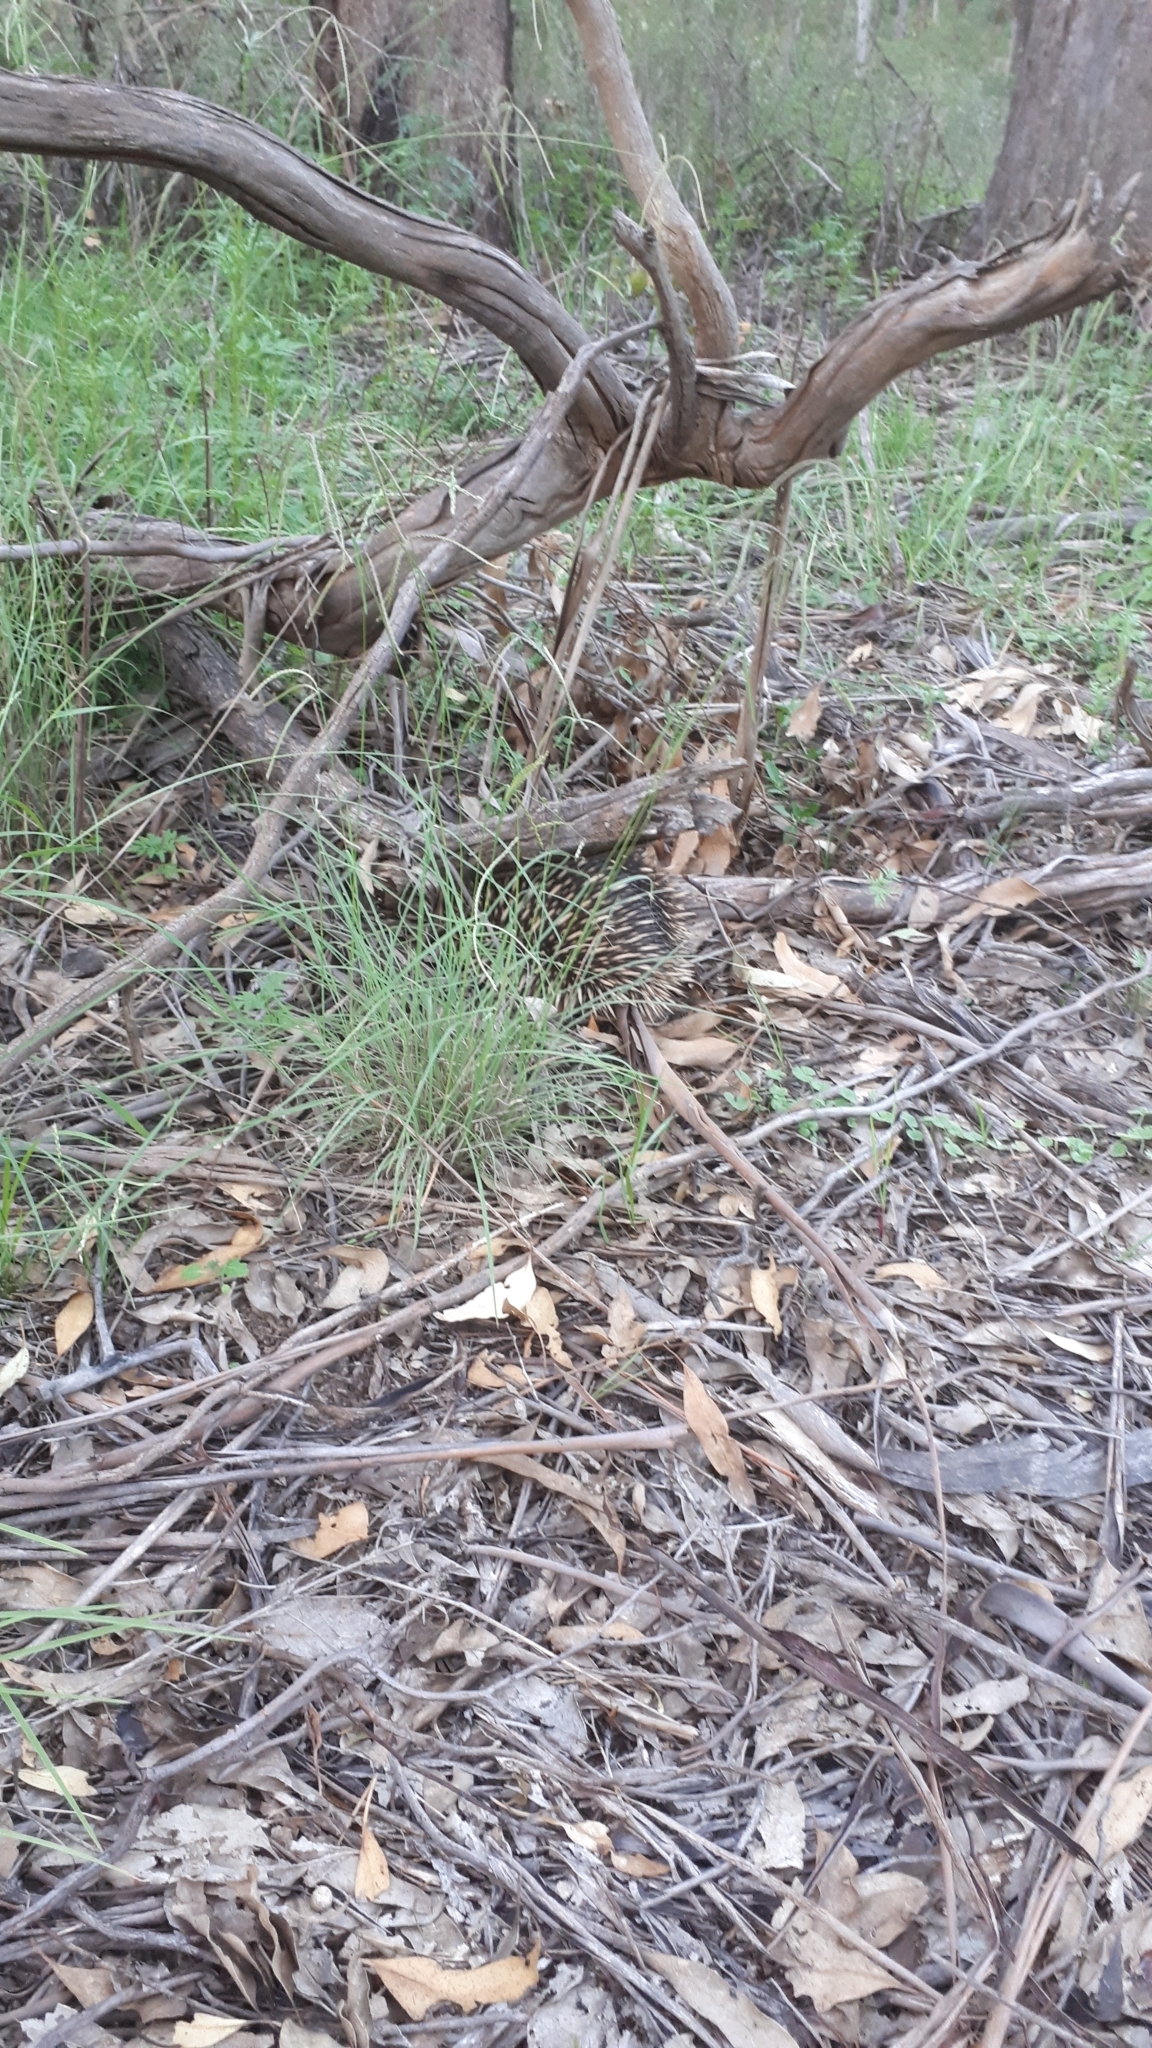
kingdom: Animalia
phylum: Chordata
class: Mammalia
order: Monotremata
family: Tachyglossidae
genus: Tachyglossus
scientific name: Tachyglossus aculeatus
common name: Short-beaked echidna
